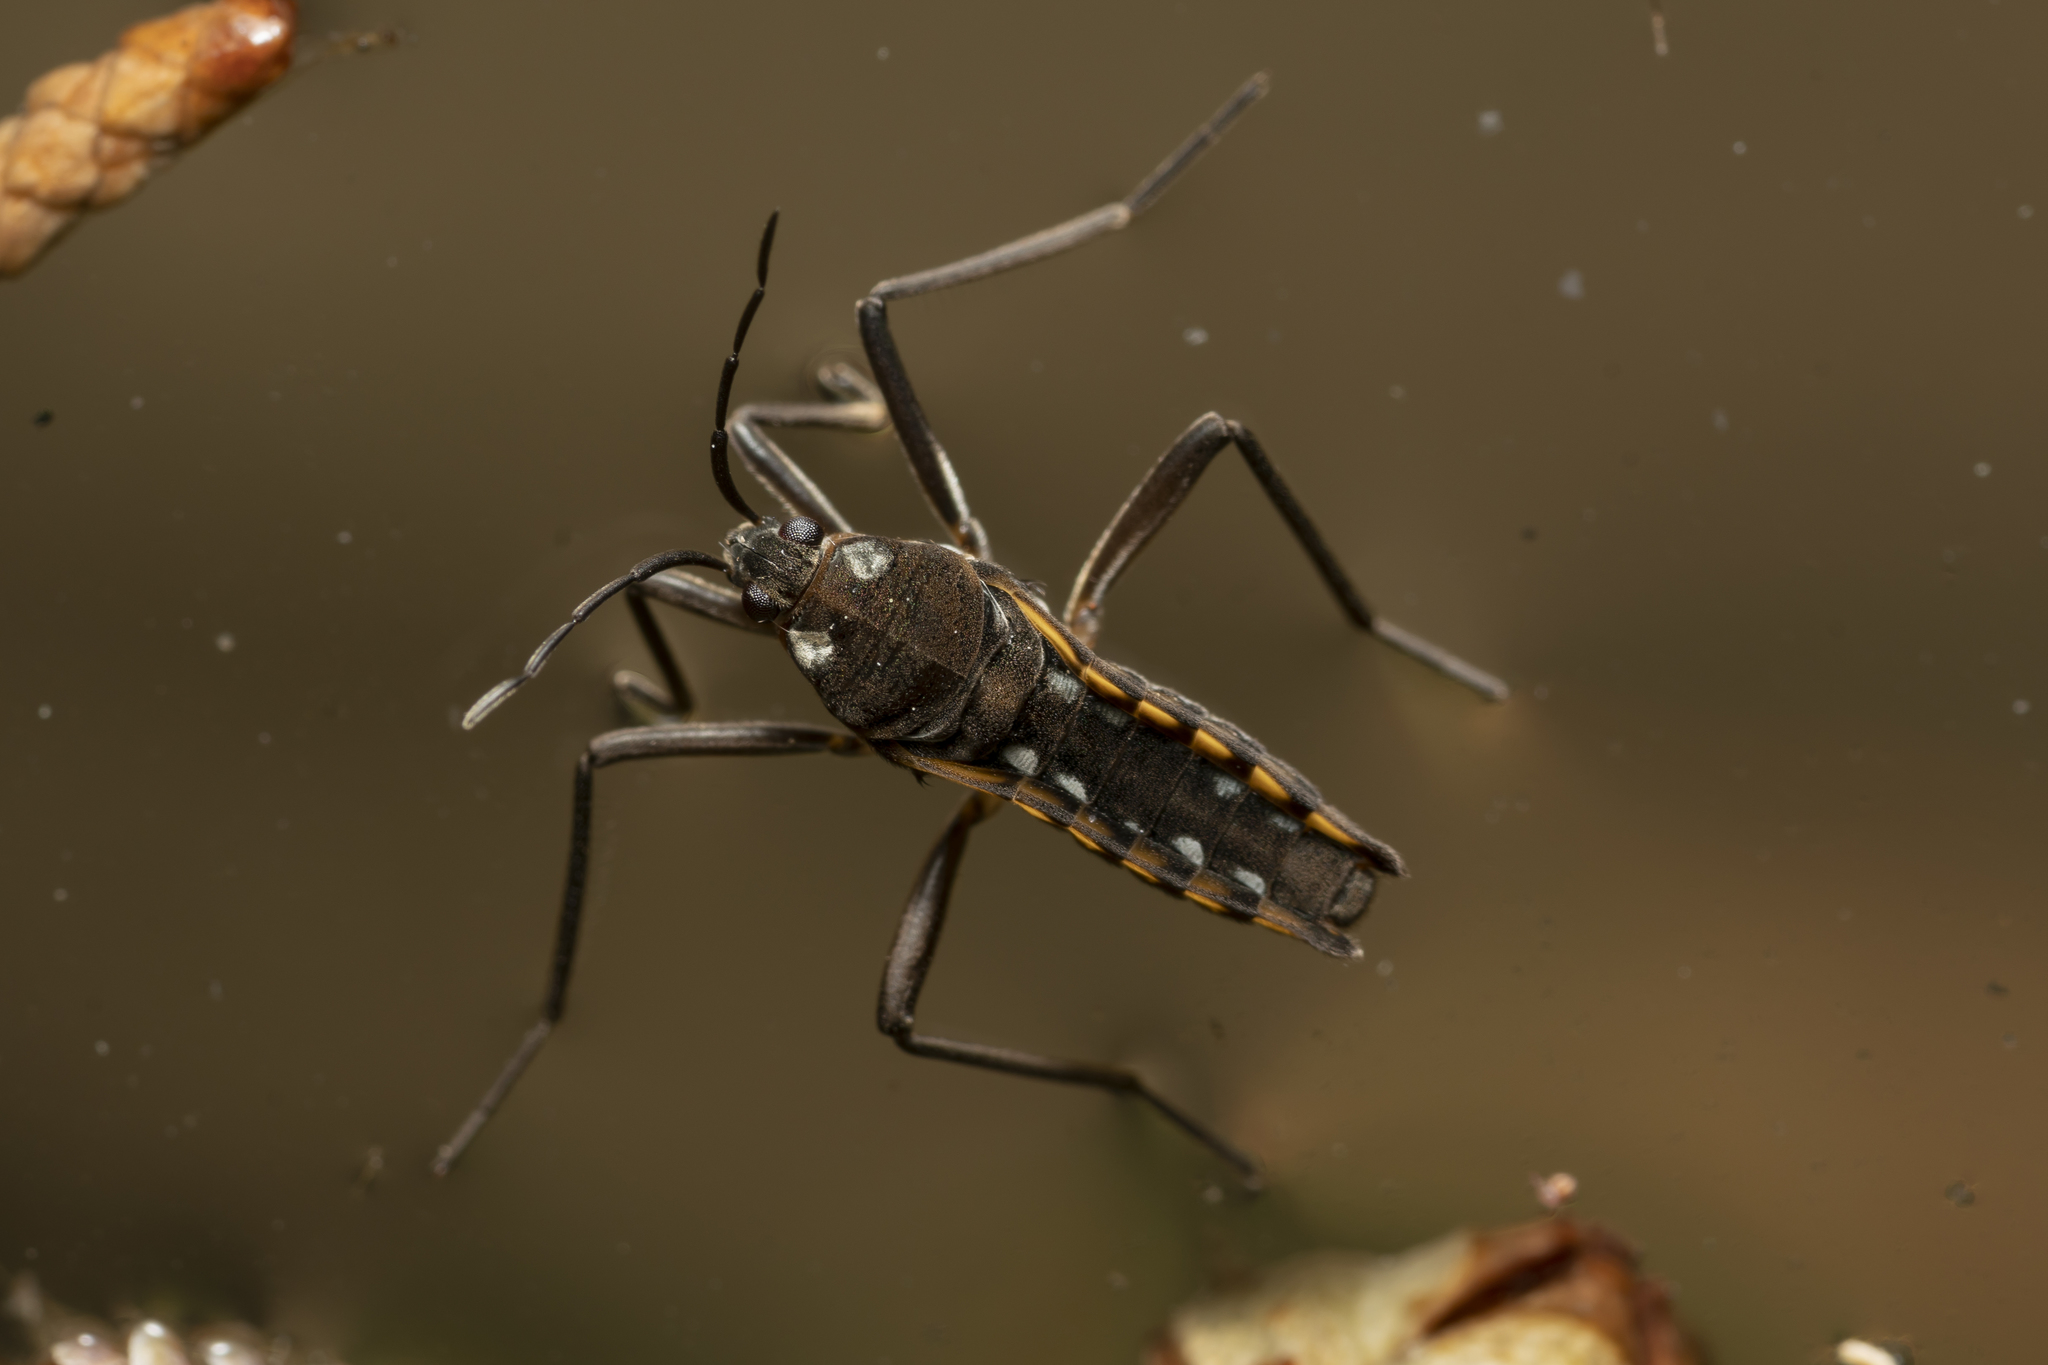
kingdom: Animalia
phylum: Arthropoda
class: Insecta
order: Hemiptera
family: Veliidae
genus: Velia
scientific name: Velia mariae
